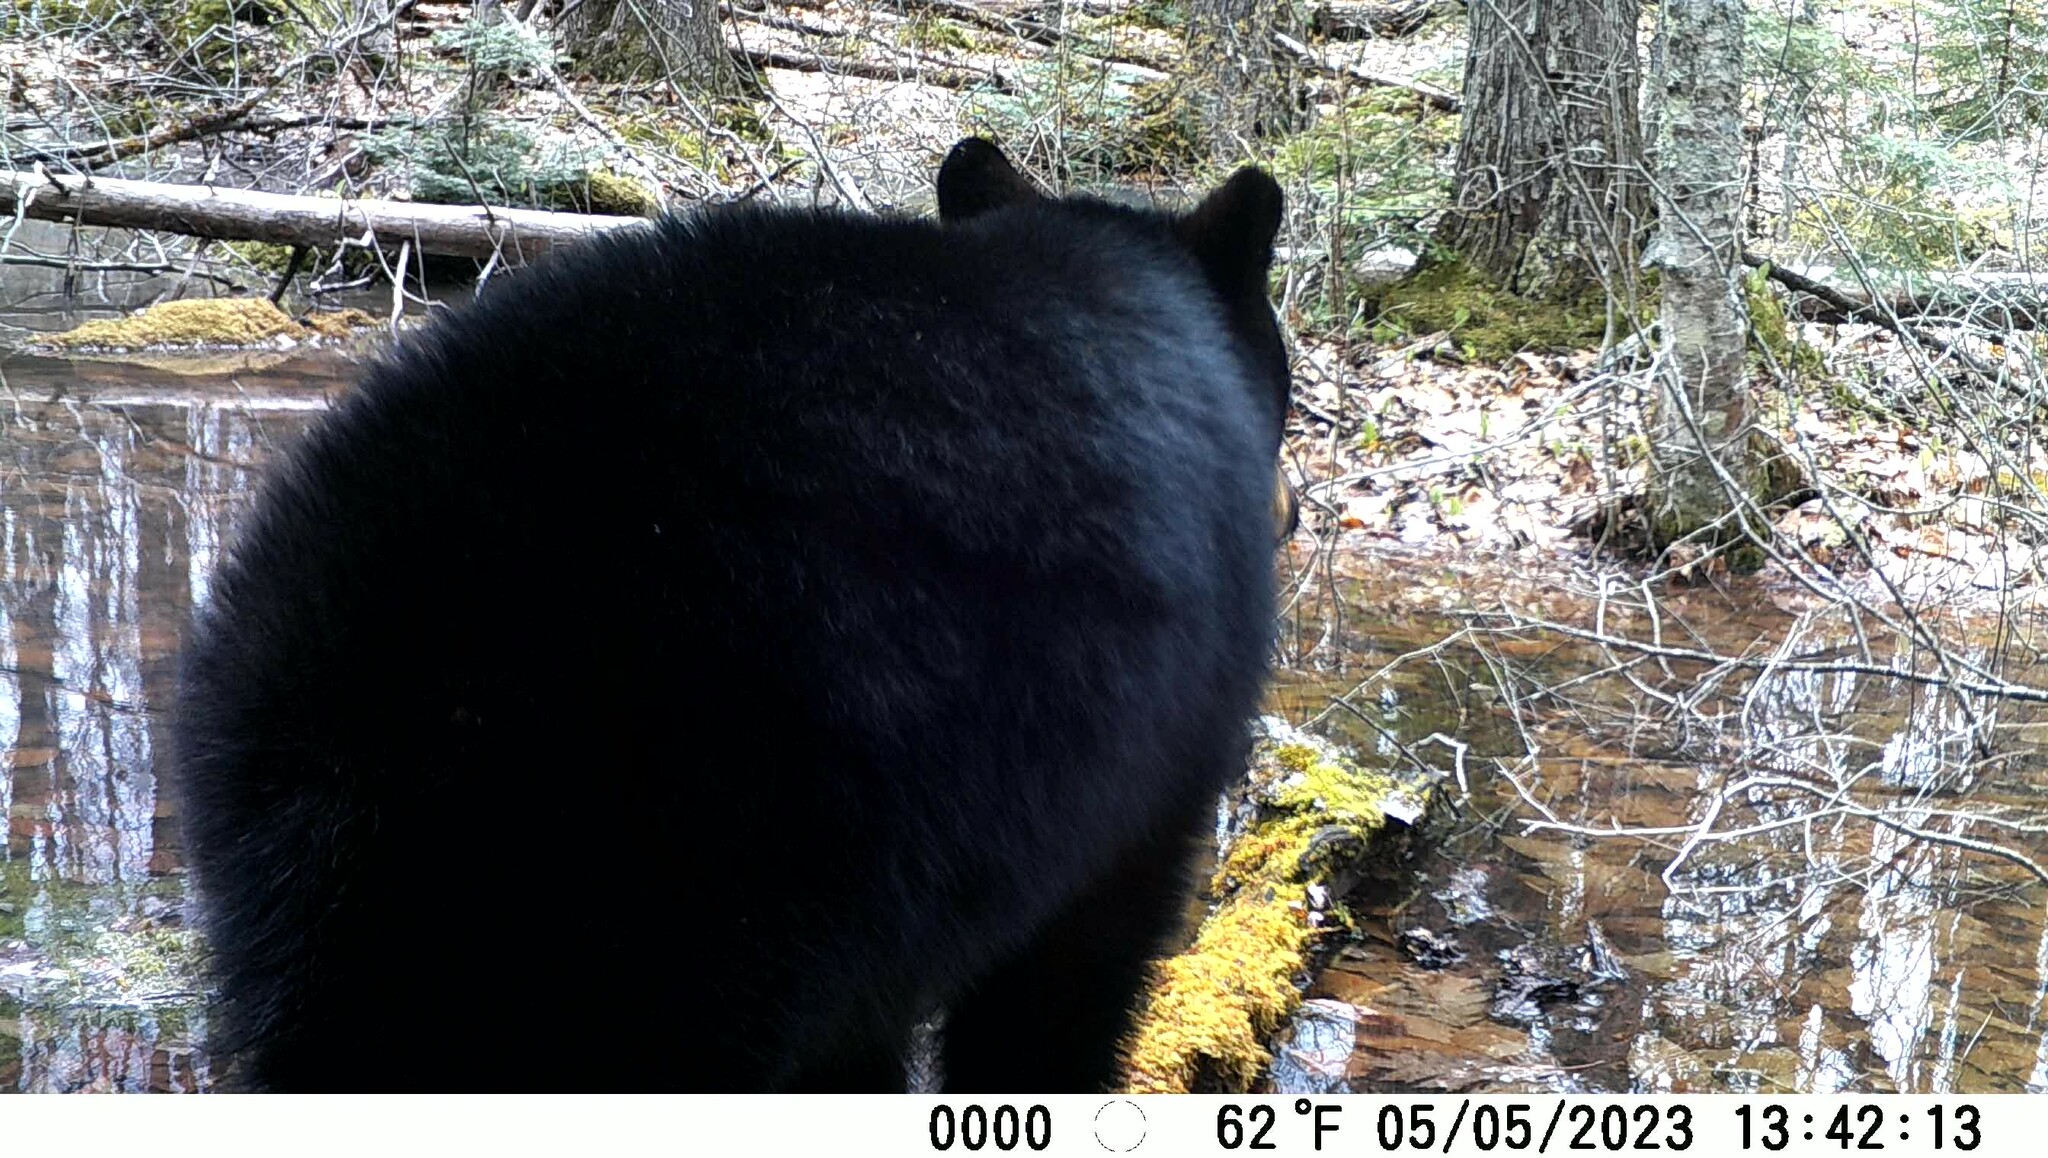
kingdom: Animalia
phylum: Chordata
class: Mammalia
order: Carnivora
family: Ursidae
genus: Ursus
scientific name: Ursus americanus
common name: American black bear
